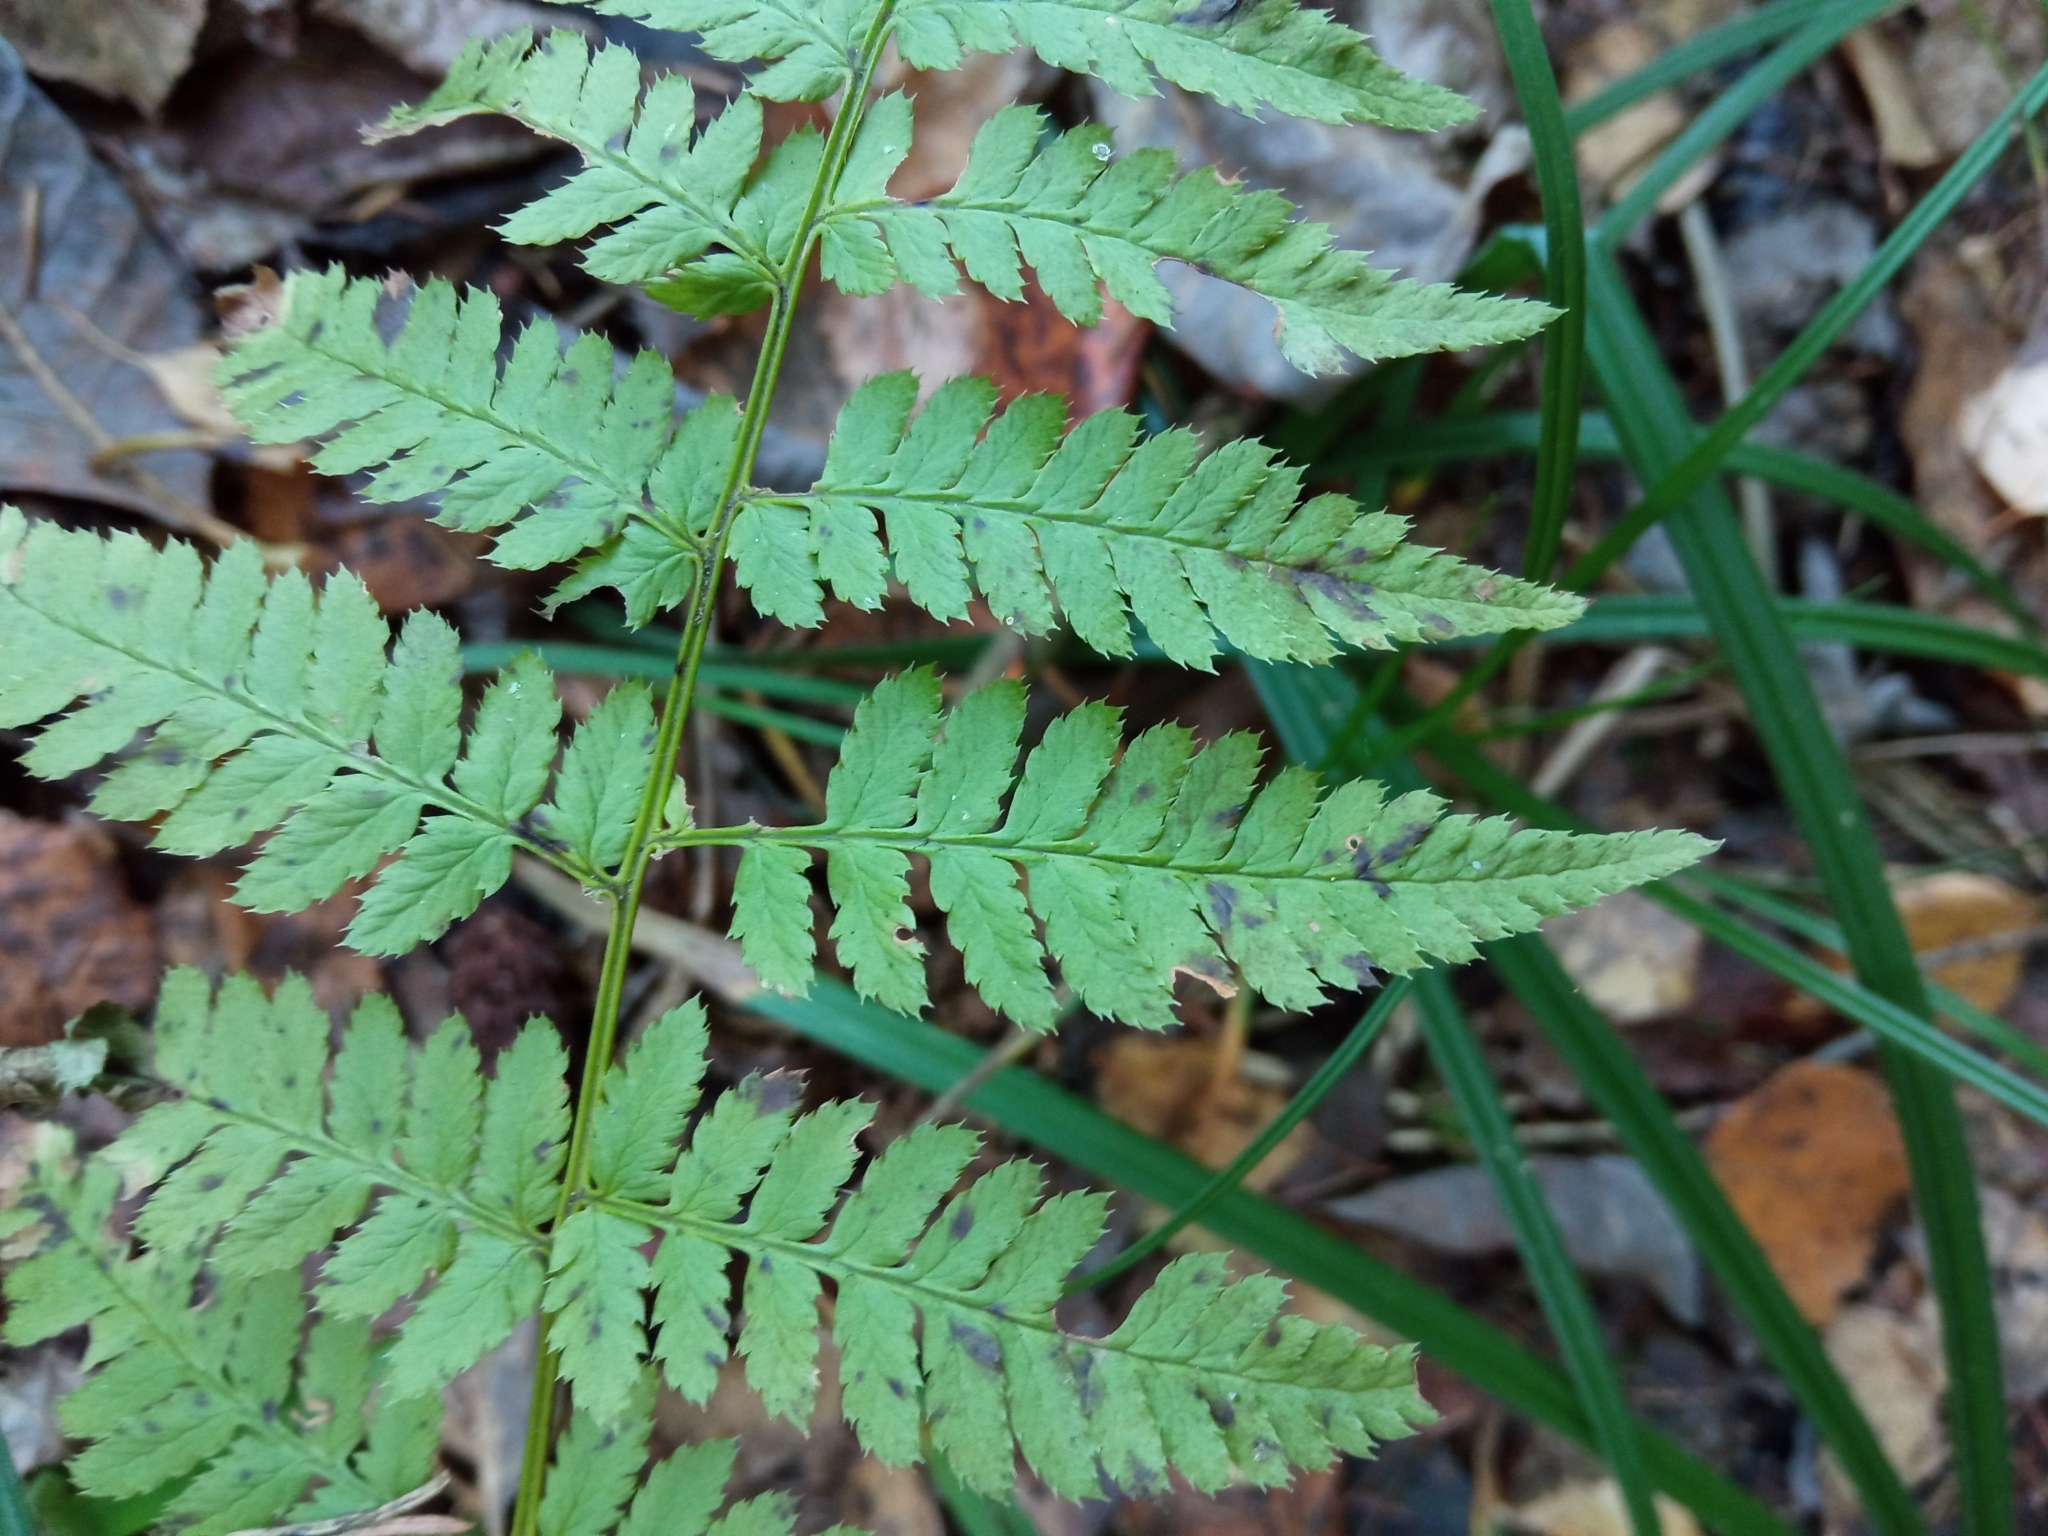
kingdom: Plantae
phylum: Tracheophyta
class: Polypodiopsida
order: Polypodiales
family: Dryopteridaceae
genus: Dryopteris
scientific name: Dryopteris carthusiana
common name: Narrow buckler-fern
